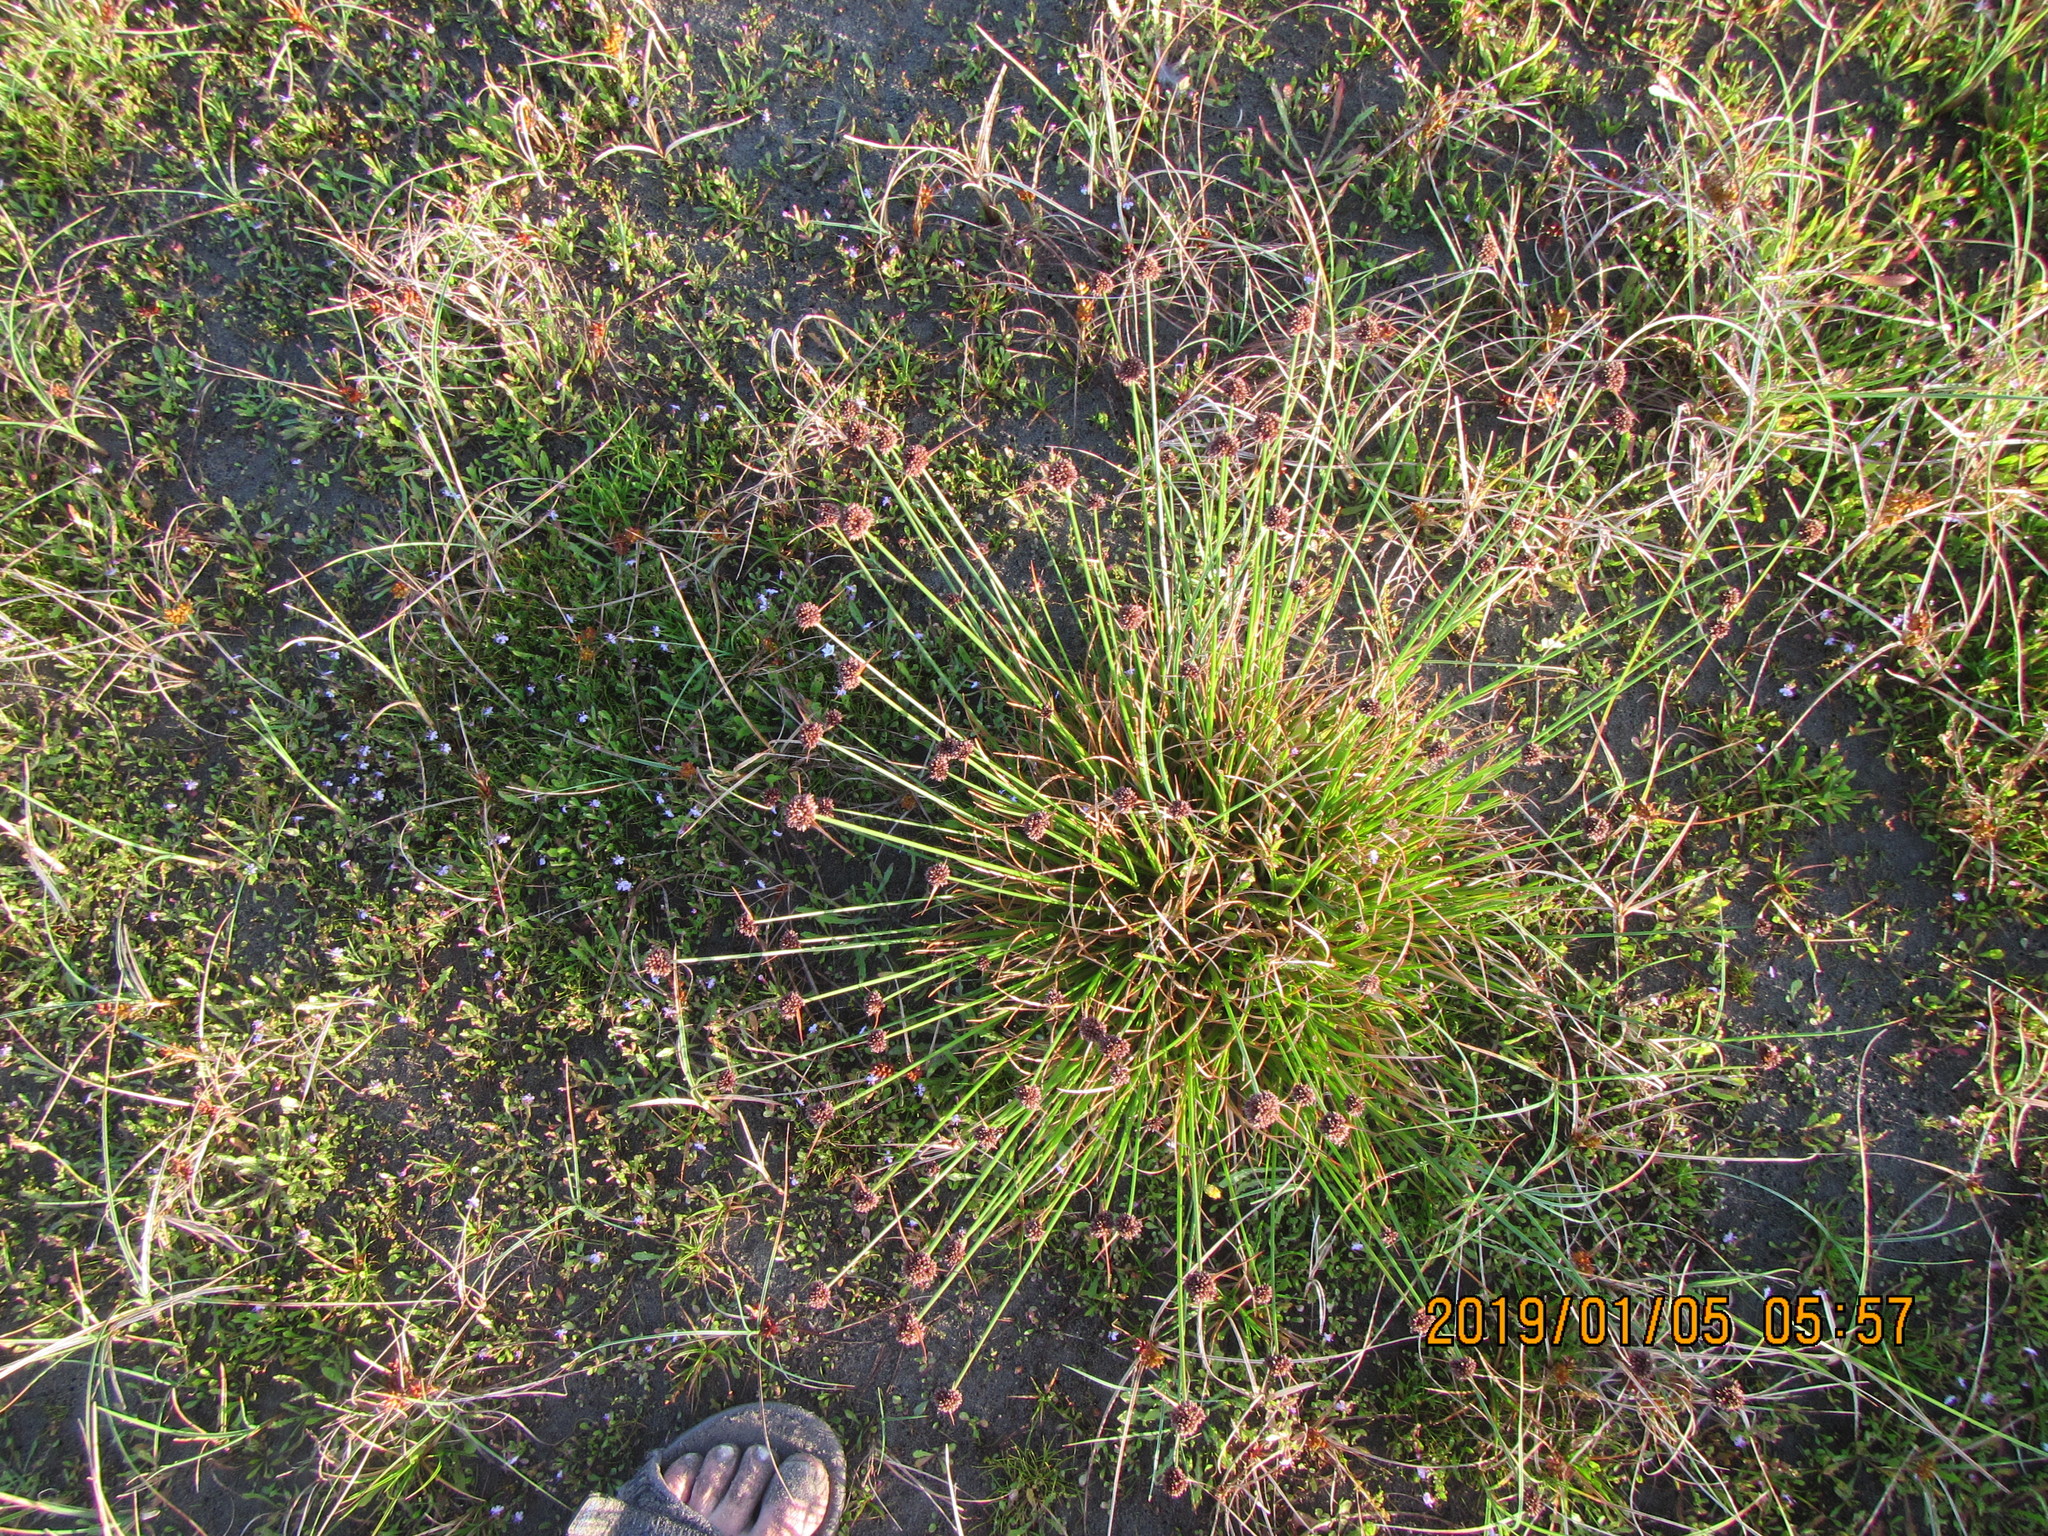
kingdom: Plantae
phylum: Tracheophyta
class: Liliopsida
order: Poales
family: Juncaceae
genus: Juncus
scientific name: Juncus caespiticius
